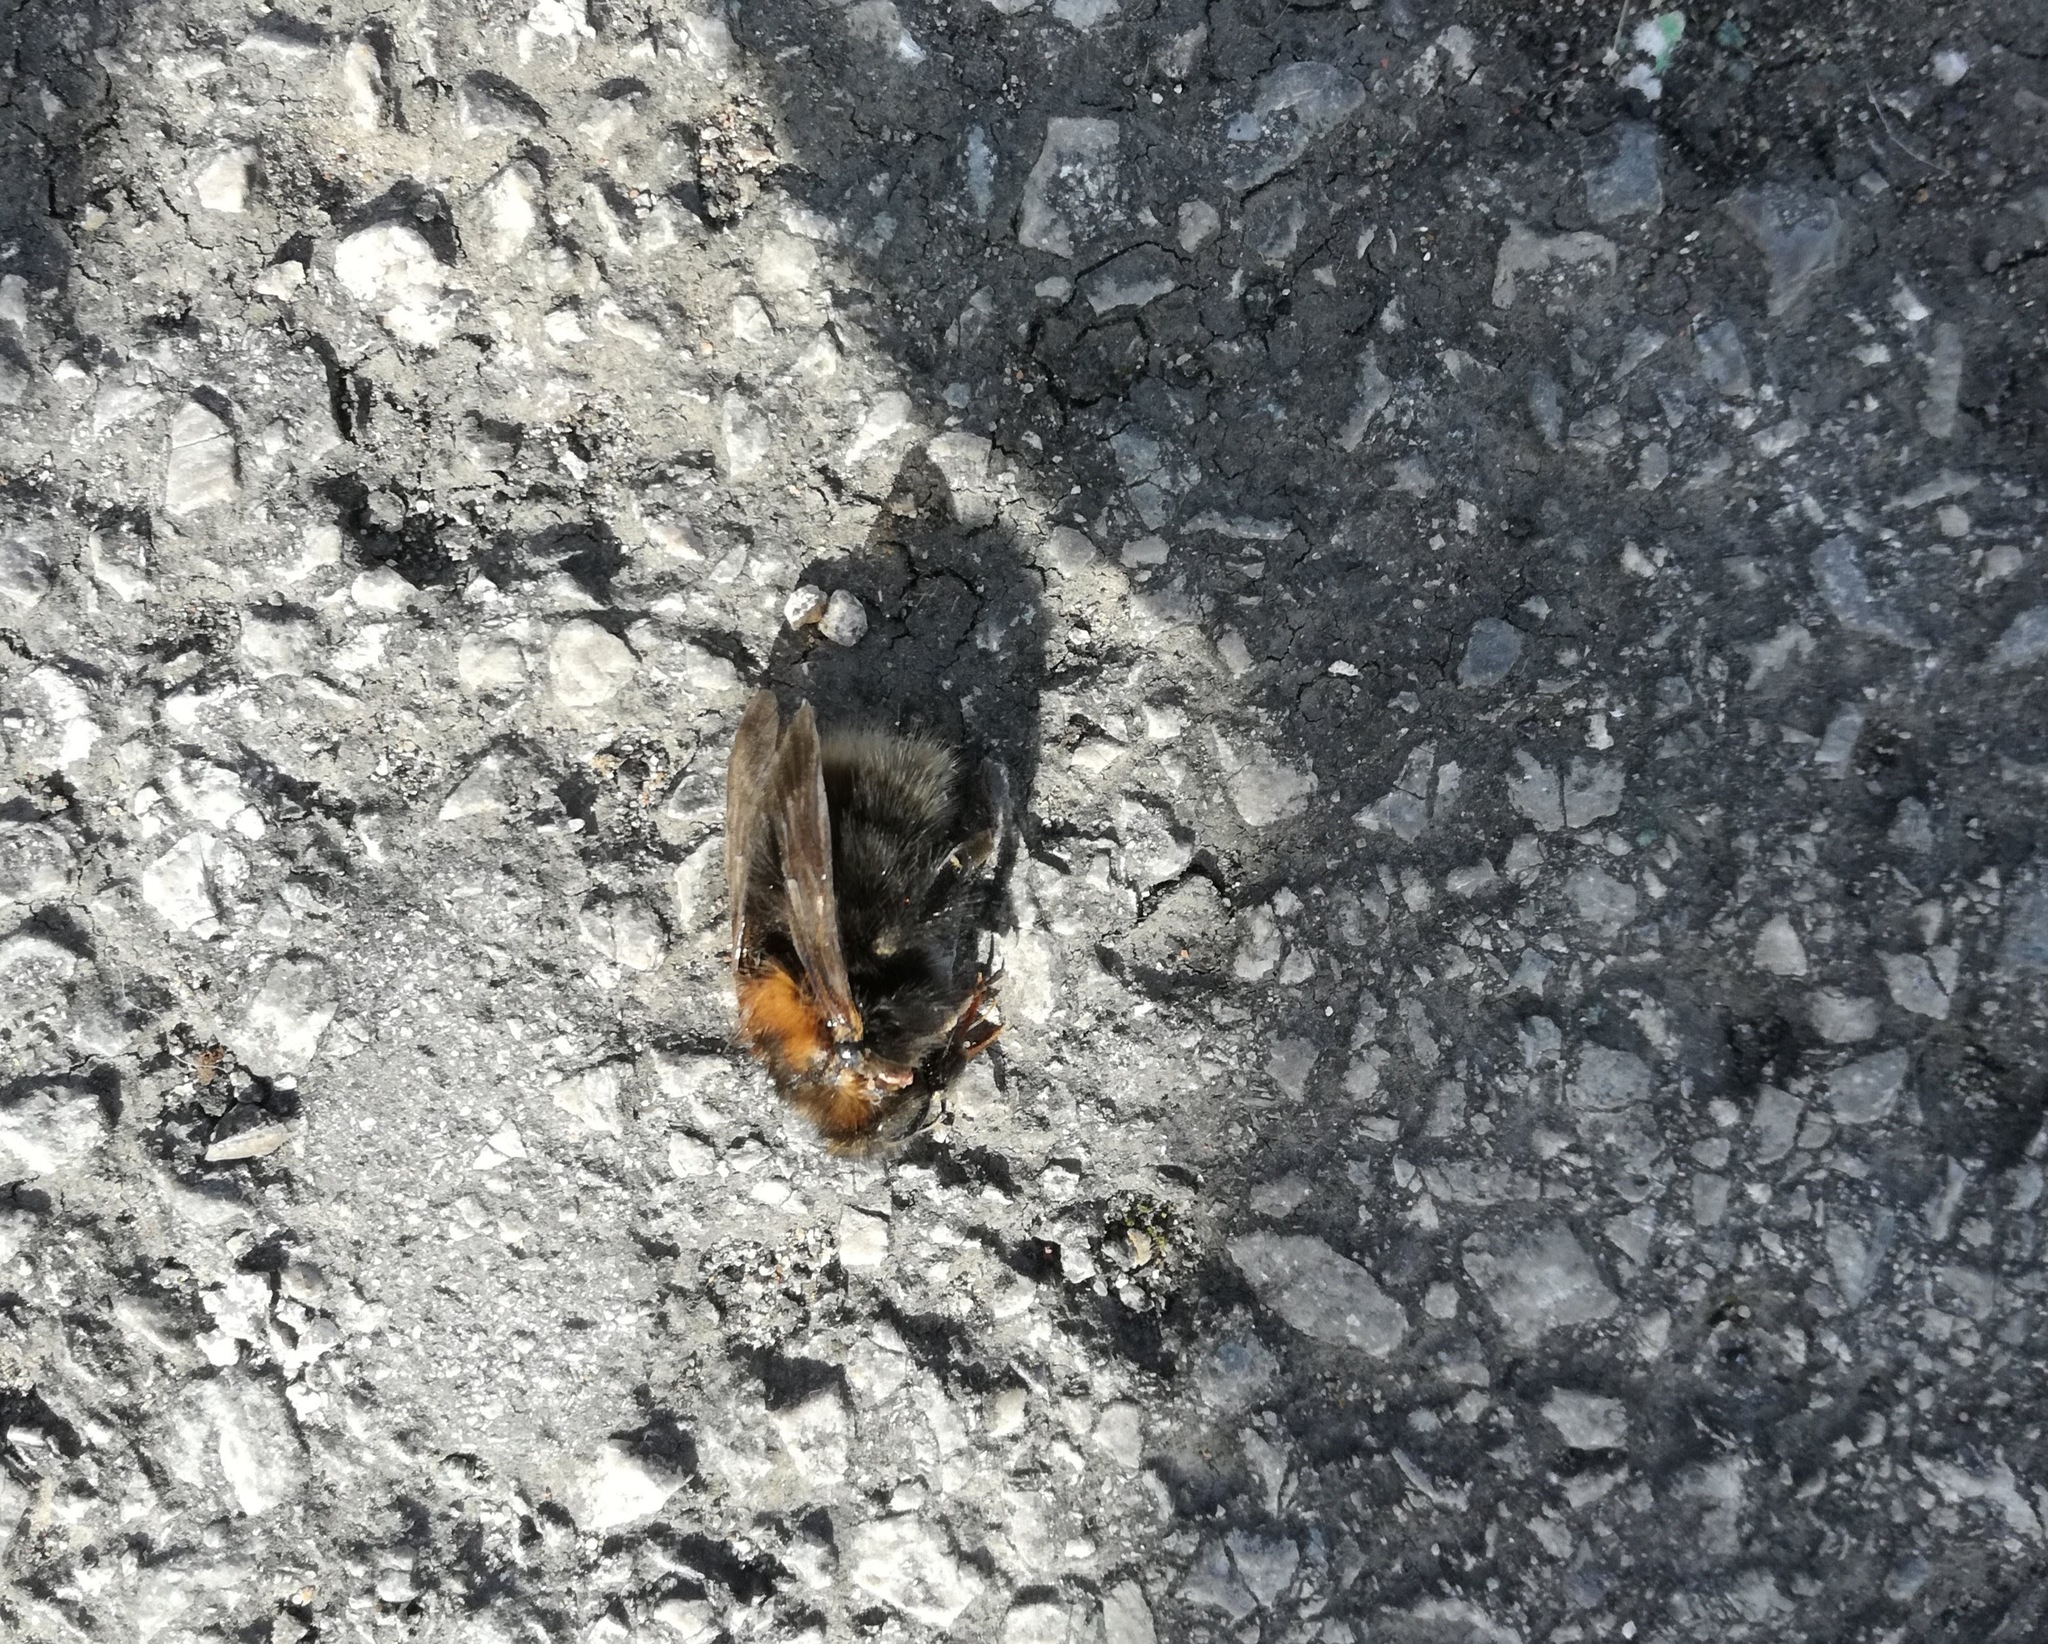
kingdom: Animalia
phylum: Arthropoda
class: Insecta
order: Hymenoptera
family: Apidae
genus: Bombus
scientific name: Bombus hypnorum
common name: New garden bumblebee
